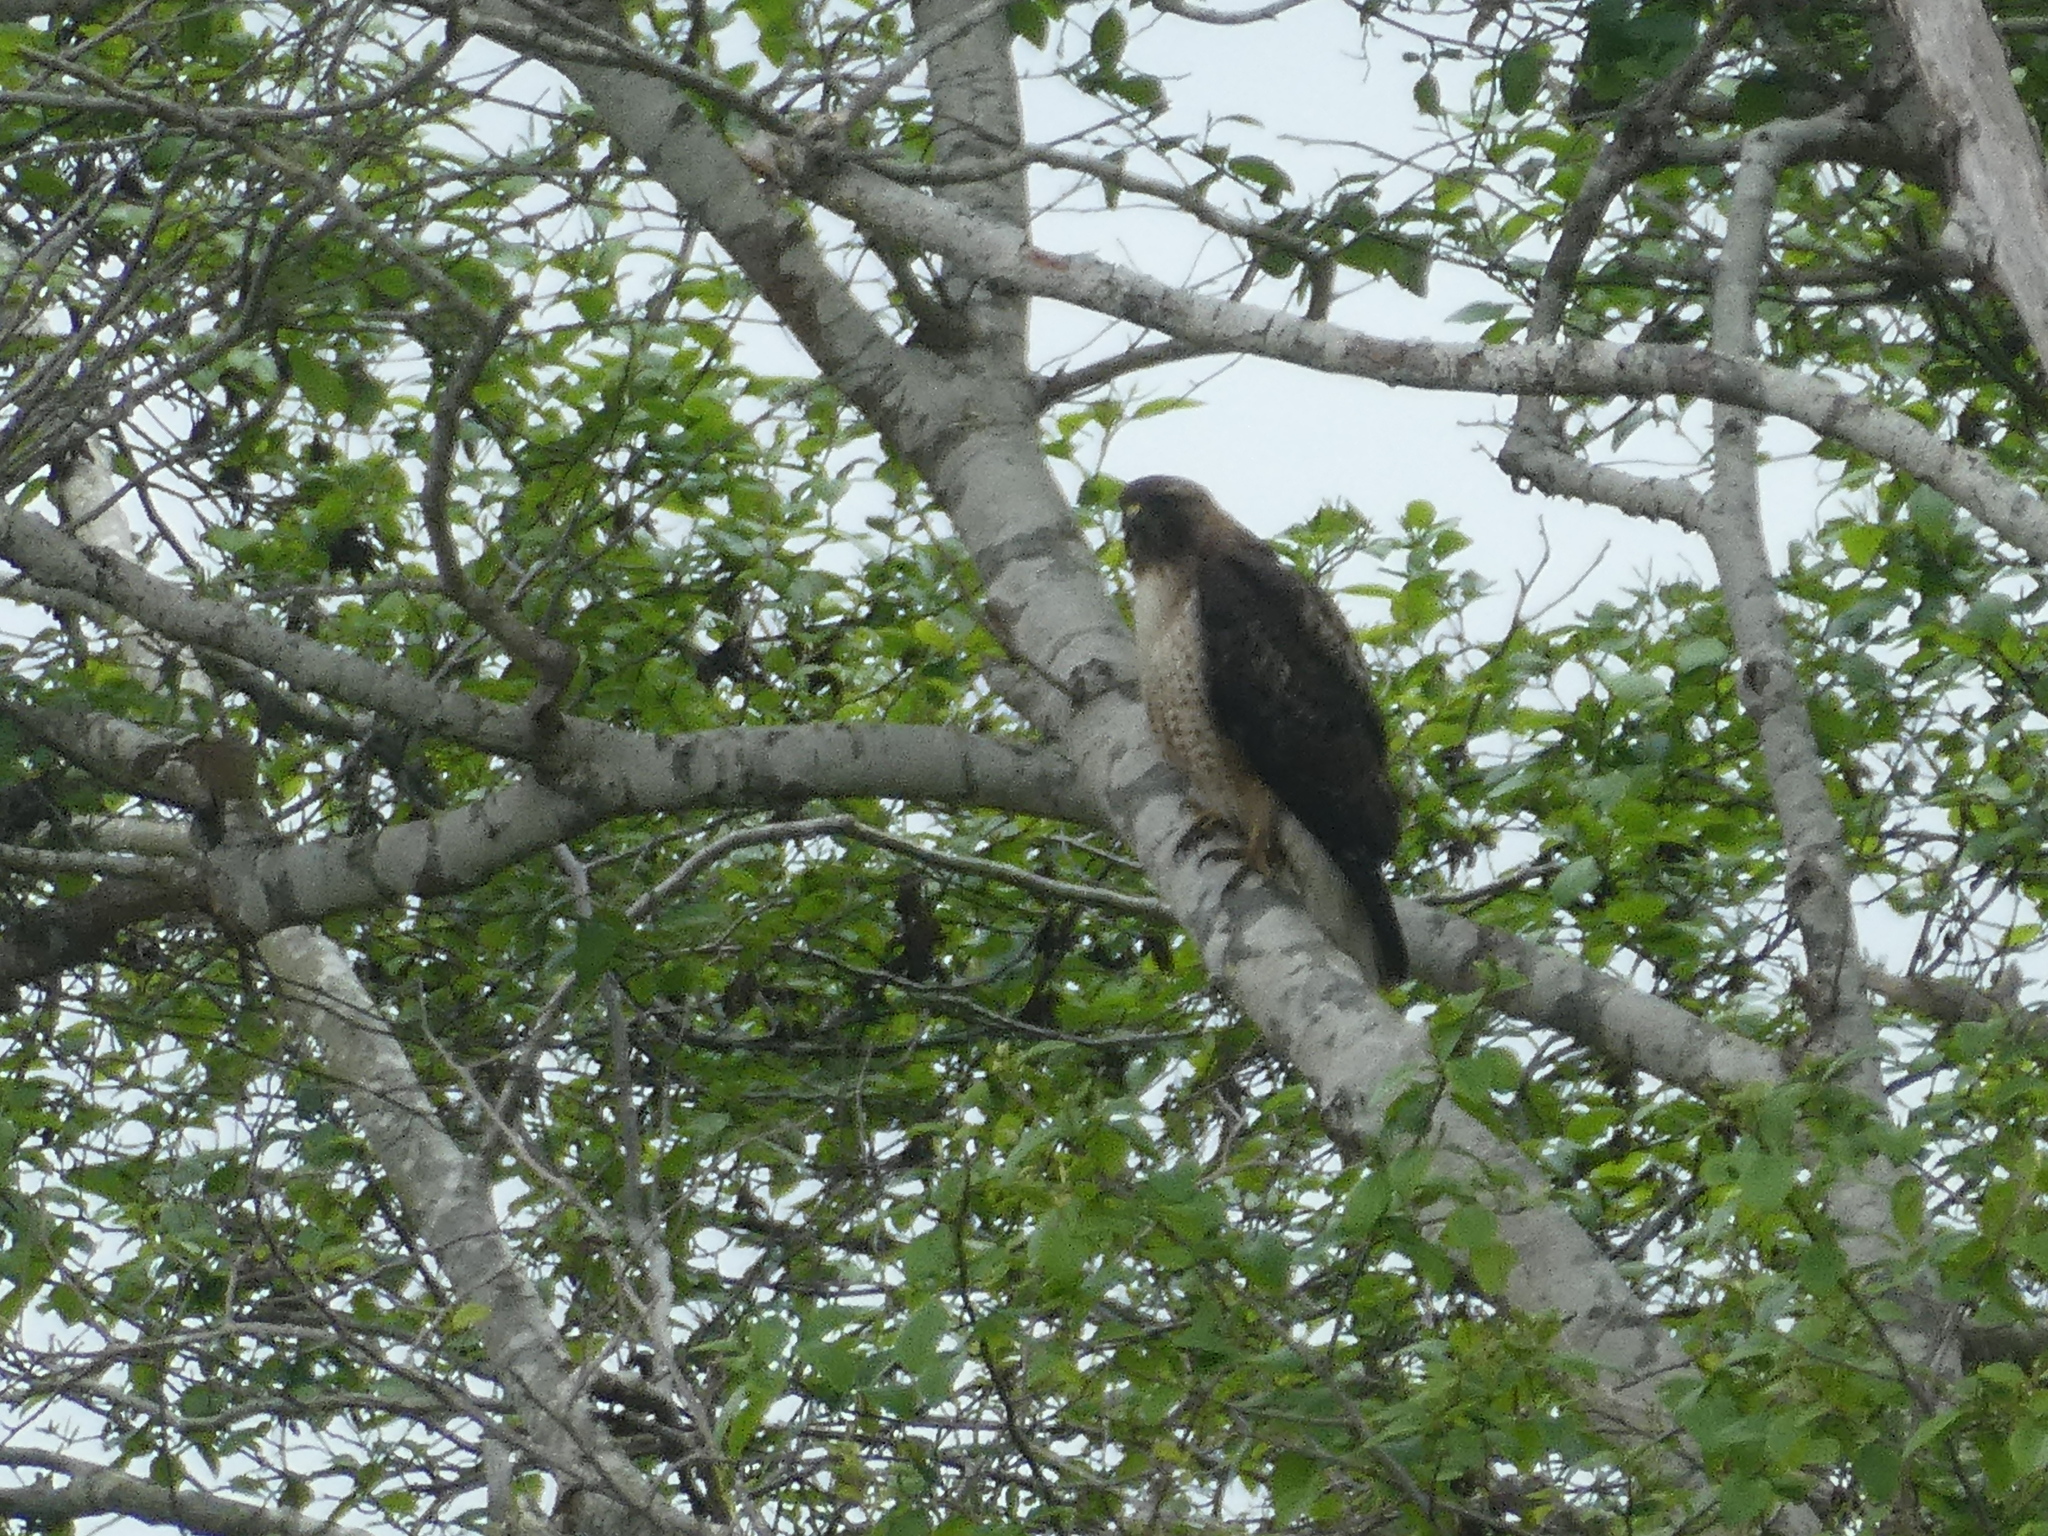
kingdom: Animalia
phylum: Chordata
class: Aves
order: Accipitriformes
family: Accipitridae
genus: Buteo
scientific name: Buteo jamaicensis
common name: Red-tailed hawk
